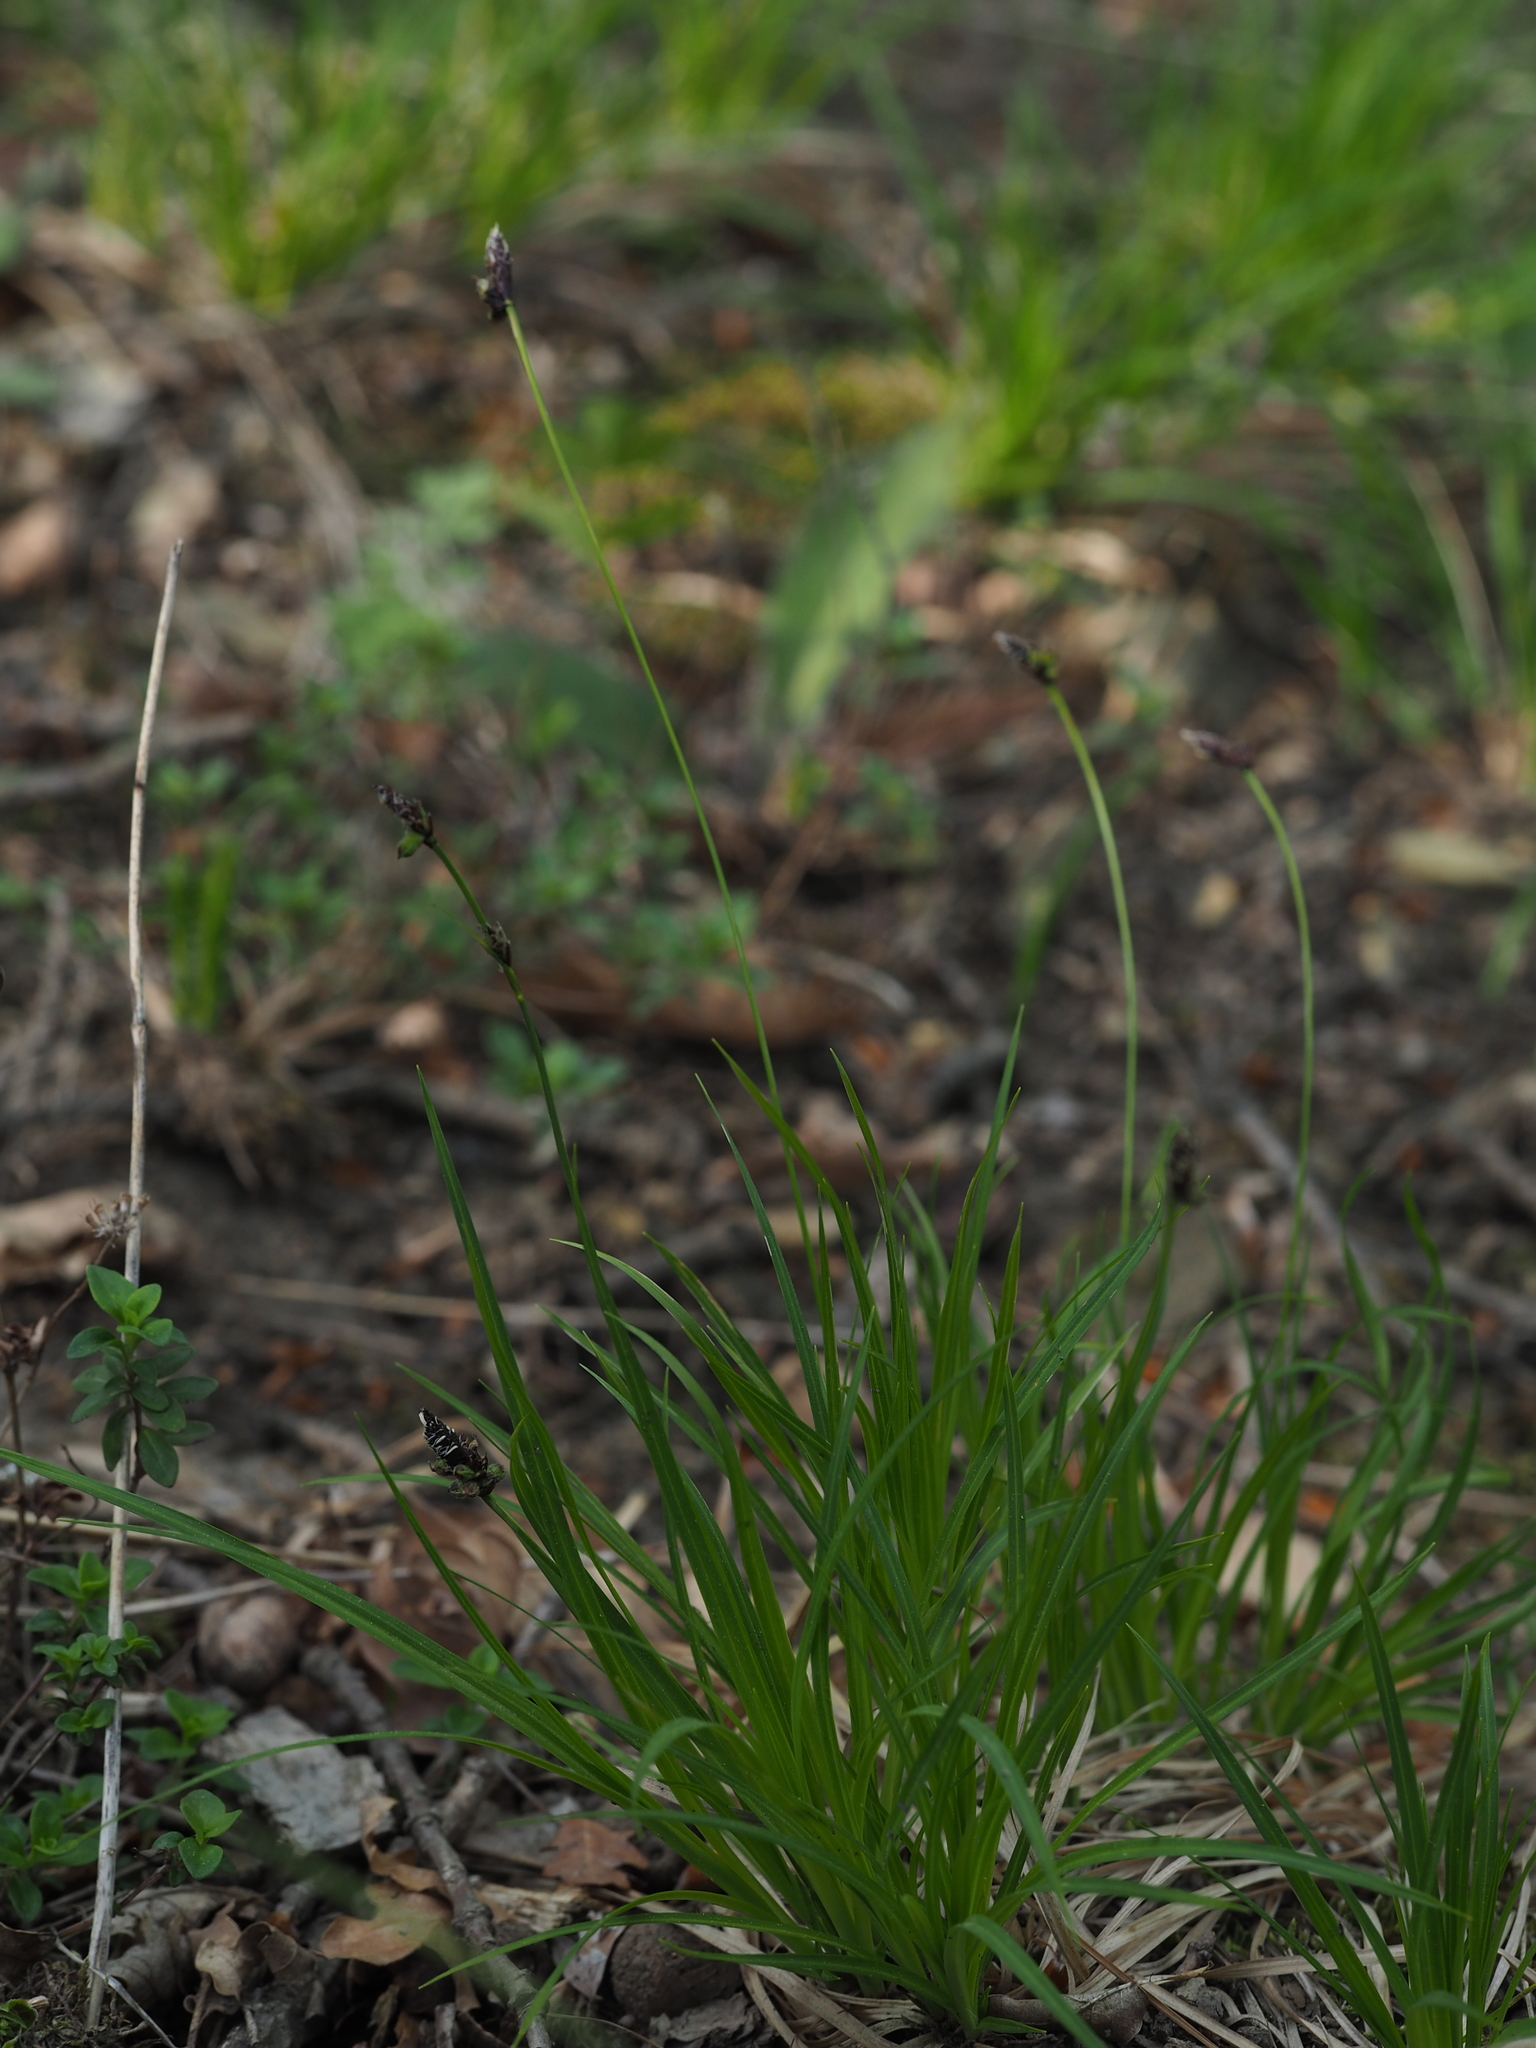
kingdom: Plantae
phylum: Tracheophyta
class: Liliopsida
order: Poales
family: Cyperaceae
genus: Carex
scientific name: Carex montana
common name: Soft-leaved sedge
